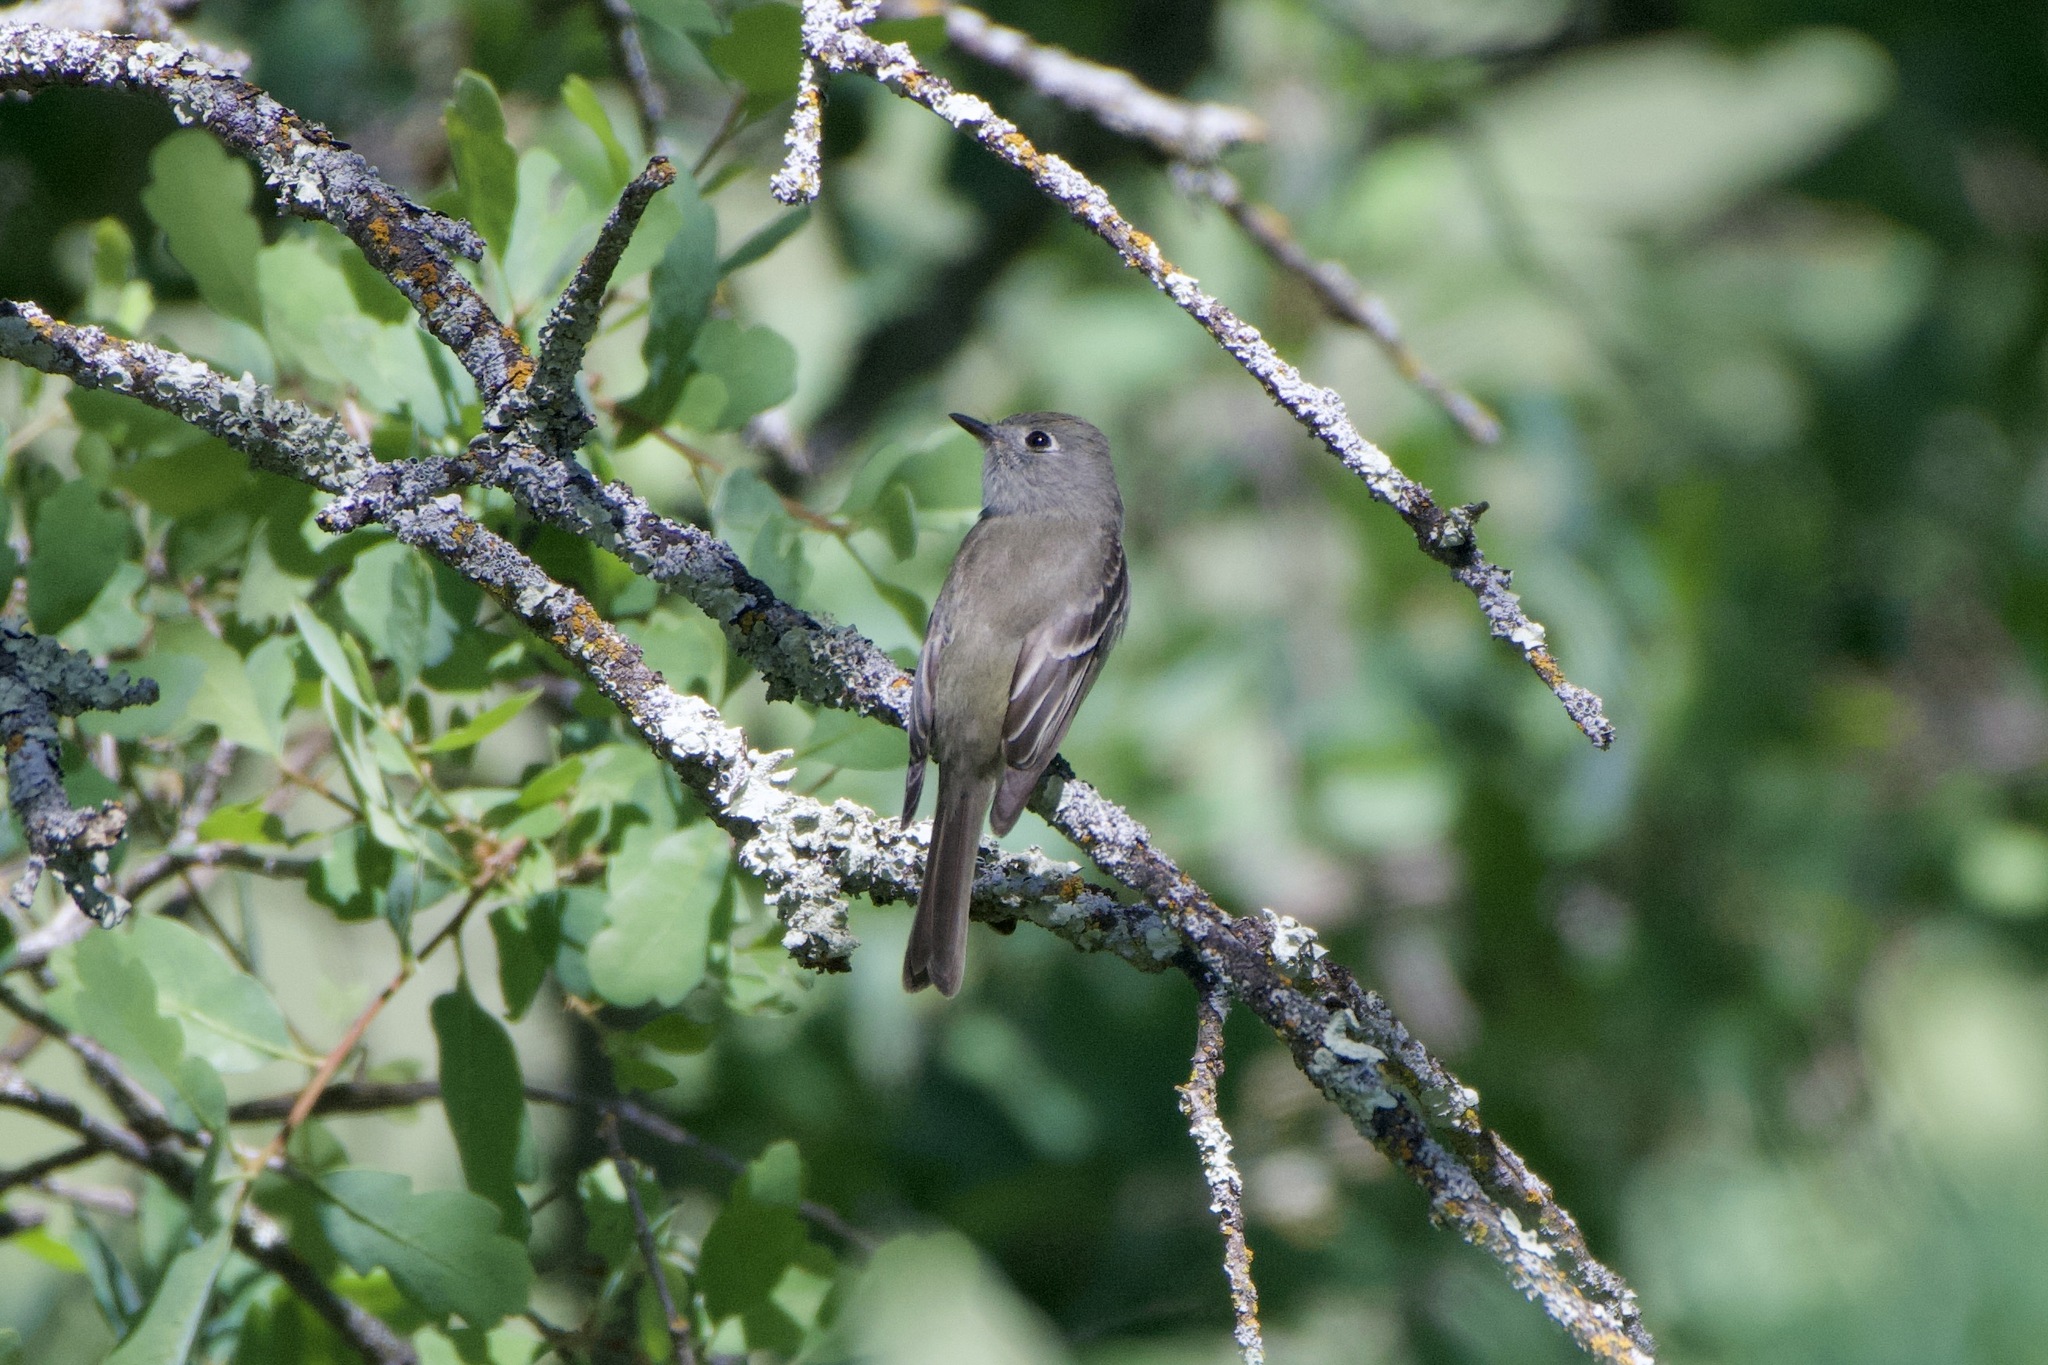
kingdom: Animalia
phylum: Chordata
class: Aves
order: Passeriformes
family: Tyrannidae
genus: Empidonax
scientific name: Empidonax hammondii
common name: Hammond's flycatcher
